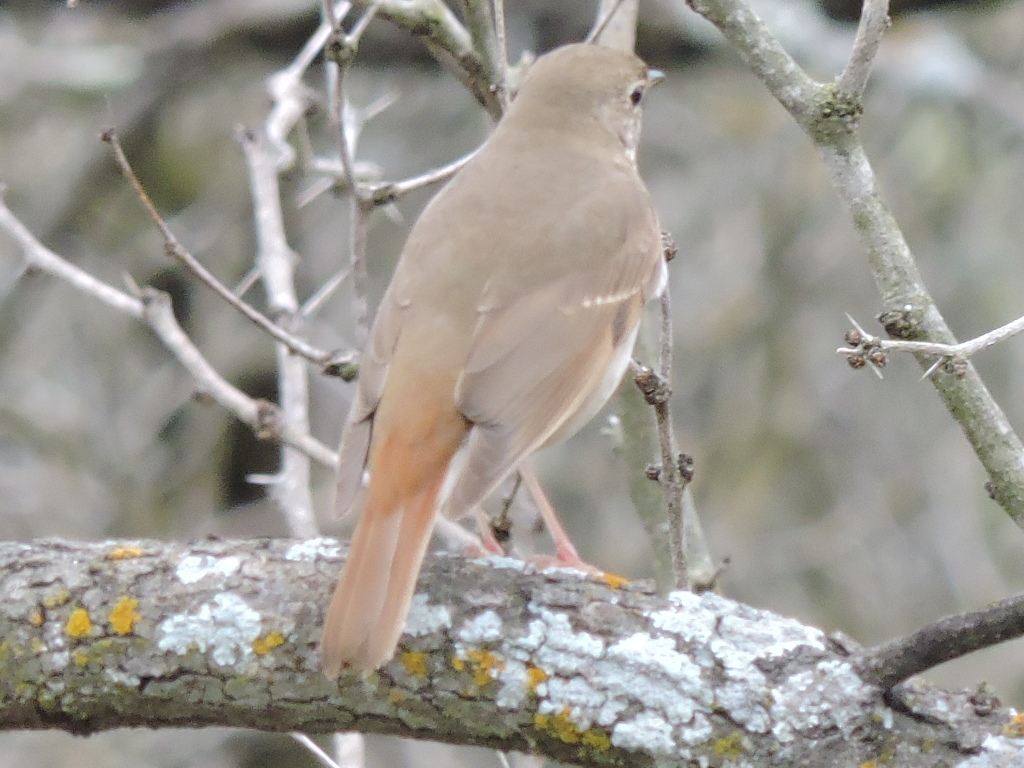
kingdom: Animalia
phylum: Chordata
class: Aves
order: Passeriformes
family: Turdidae
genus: Catharus
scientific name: Catharus guttatus
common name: Hermit thrush
